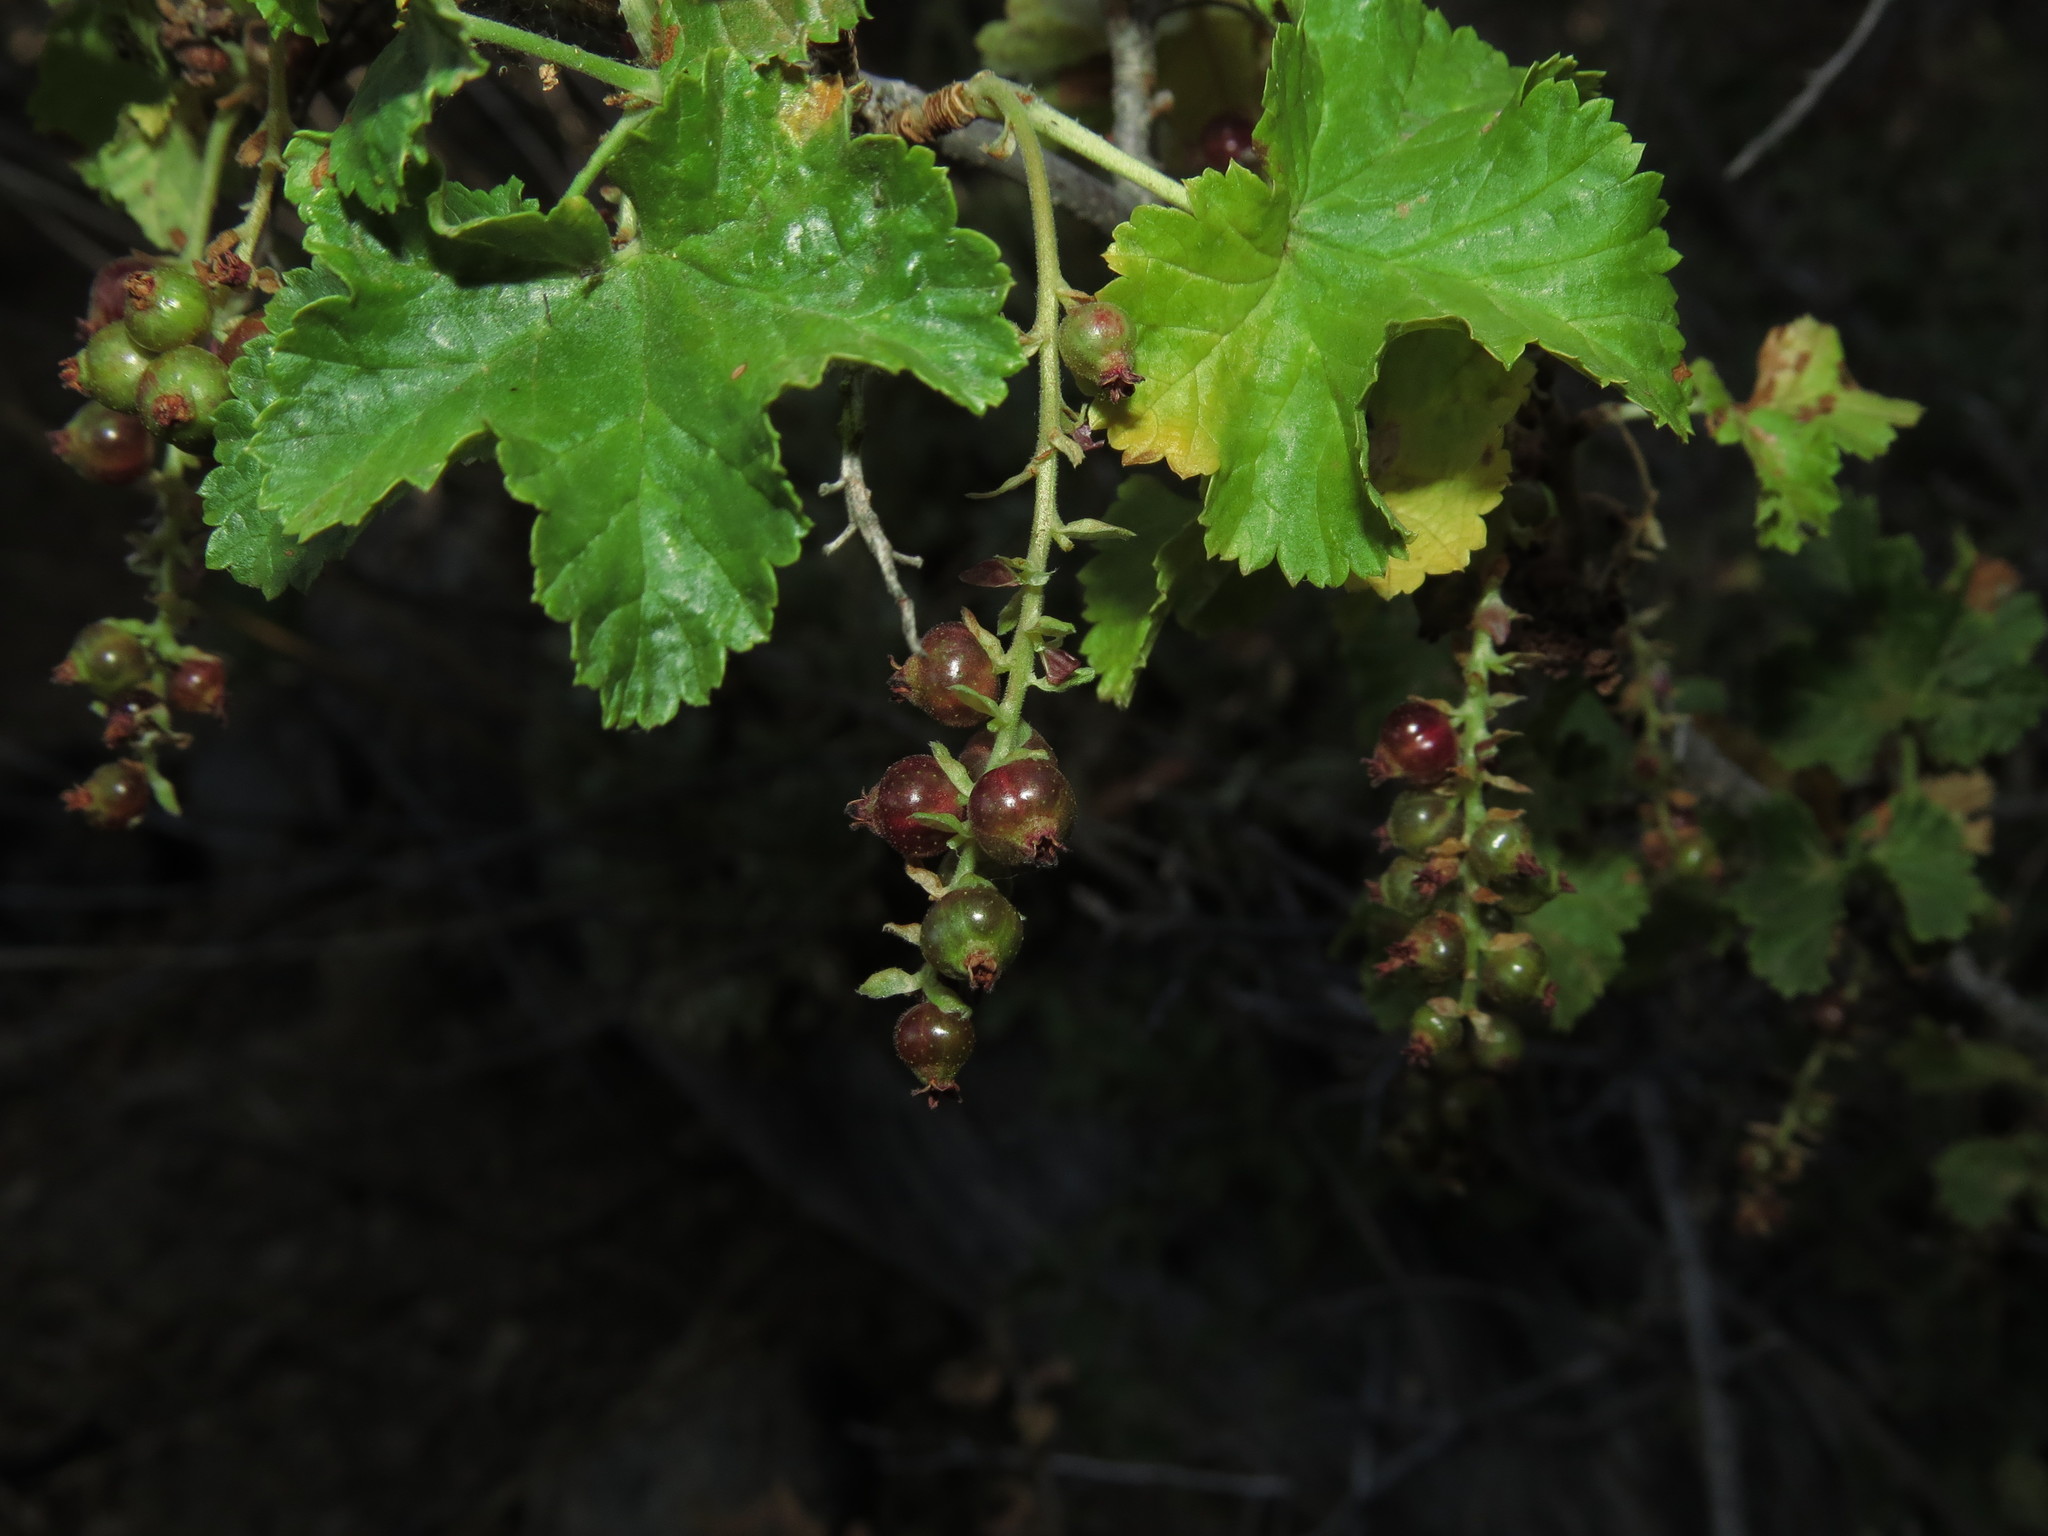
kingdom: Plantae
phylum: Tracheophyta
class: Magnoliopsida
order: Saxifragales
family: Grossulariaceae
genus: Ribes
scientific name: Ribes punctatum
